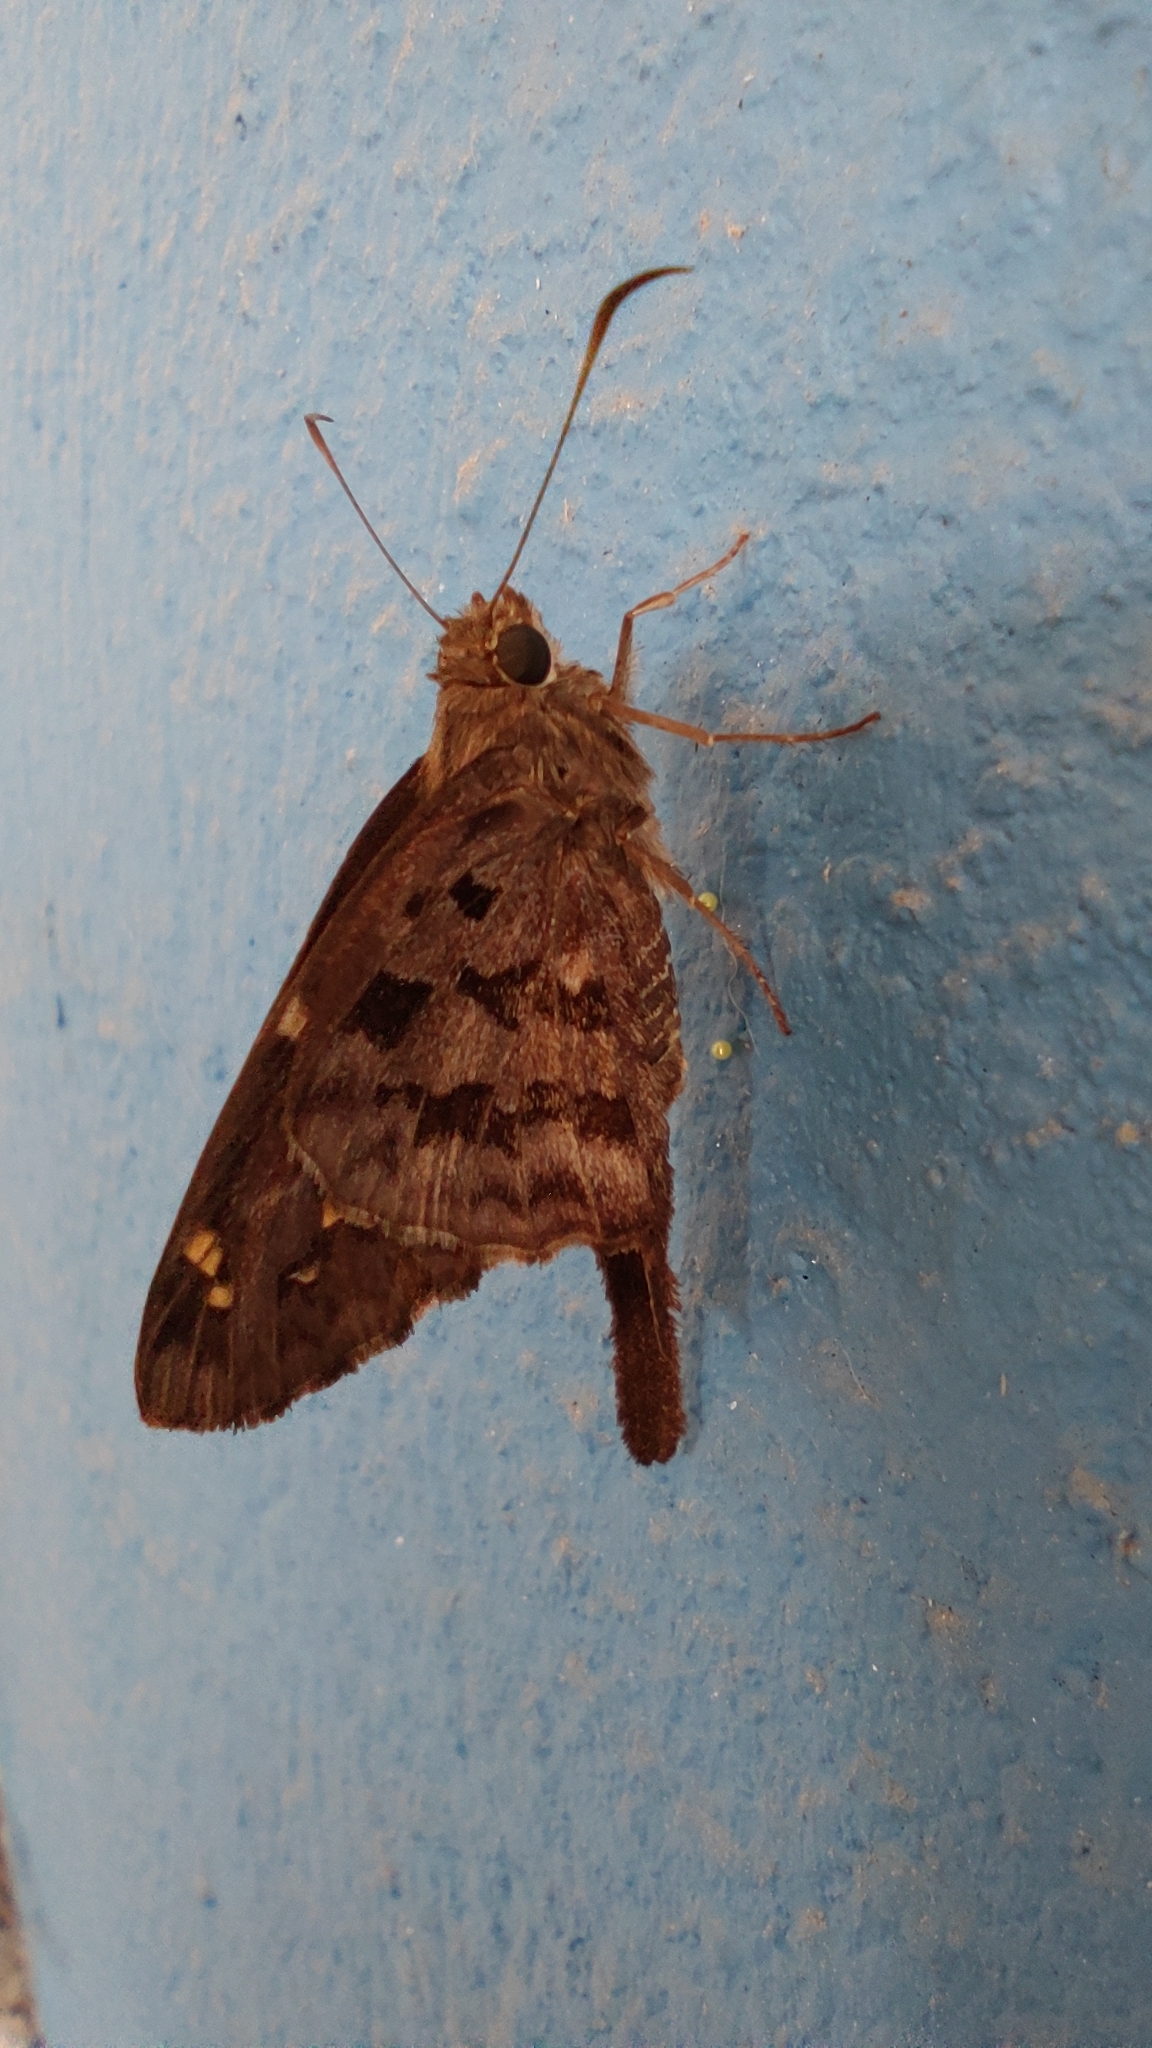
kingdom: Animalia
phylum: Arthropoda
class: Insecta
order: Lepidoptera
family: Hesperiidae
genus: Thorybes
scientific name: Thorybes
